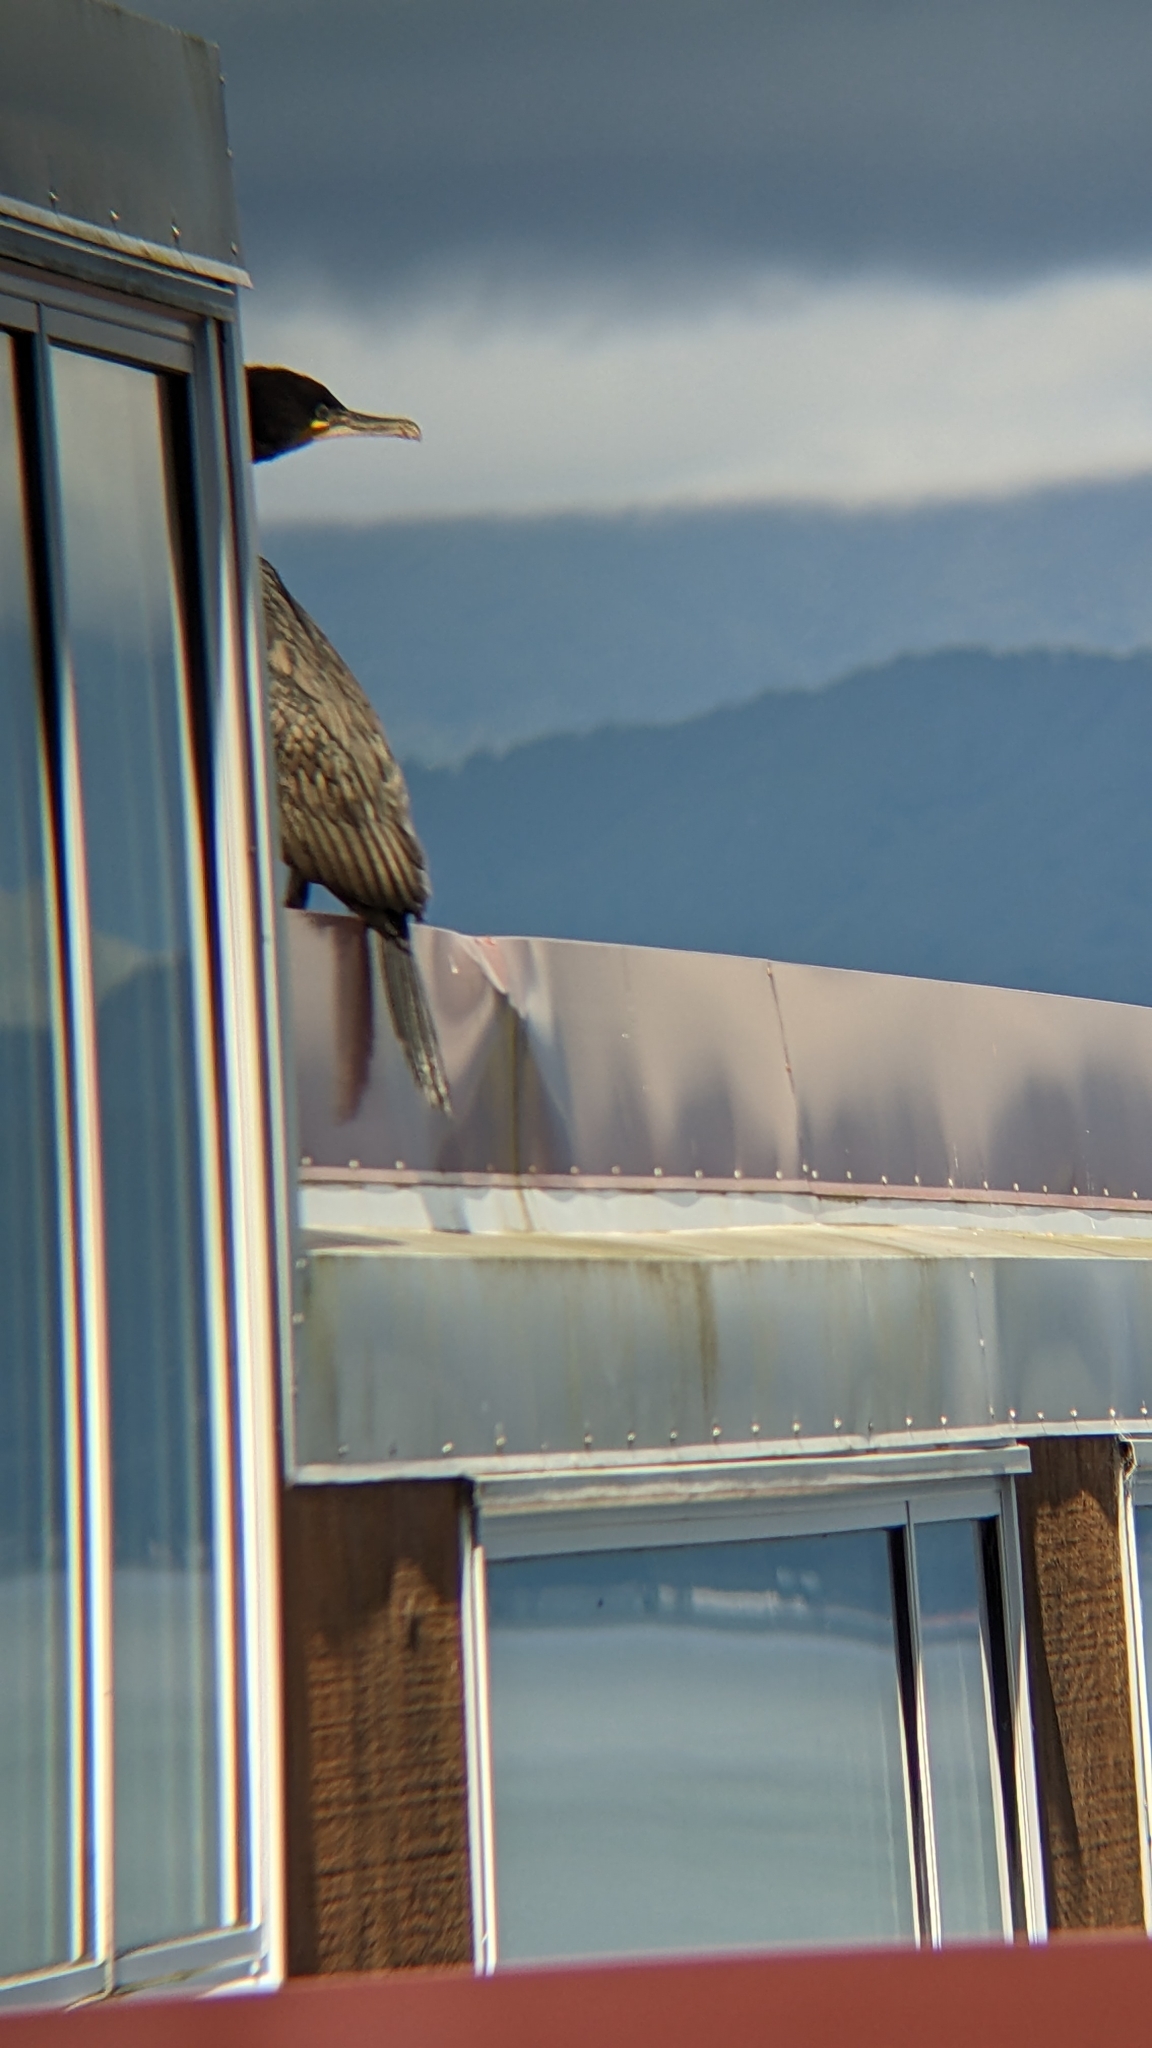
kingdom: Animalia
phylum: Chordata
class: Aves
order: Suliformes
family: Phalacrocoracidae
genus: Phalacrocorax
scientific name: Phalacrocorax carbo
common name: Great cormorant
